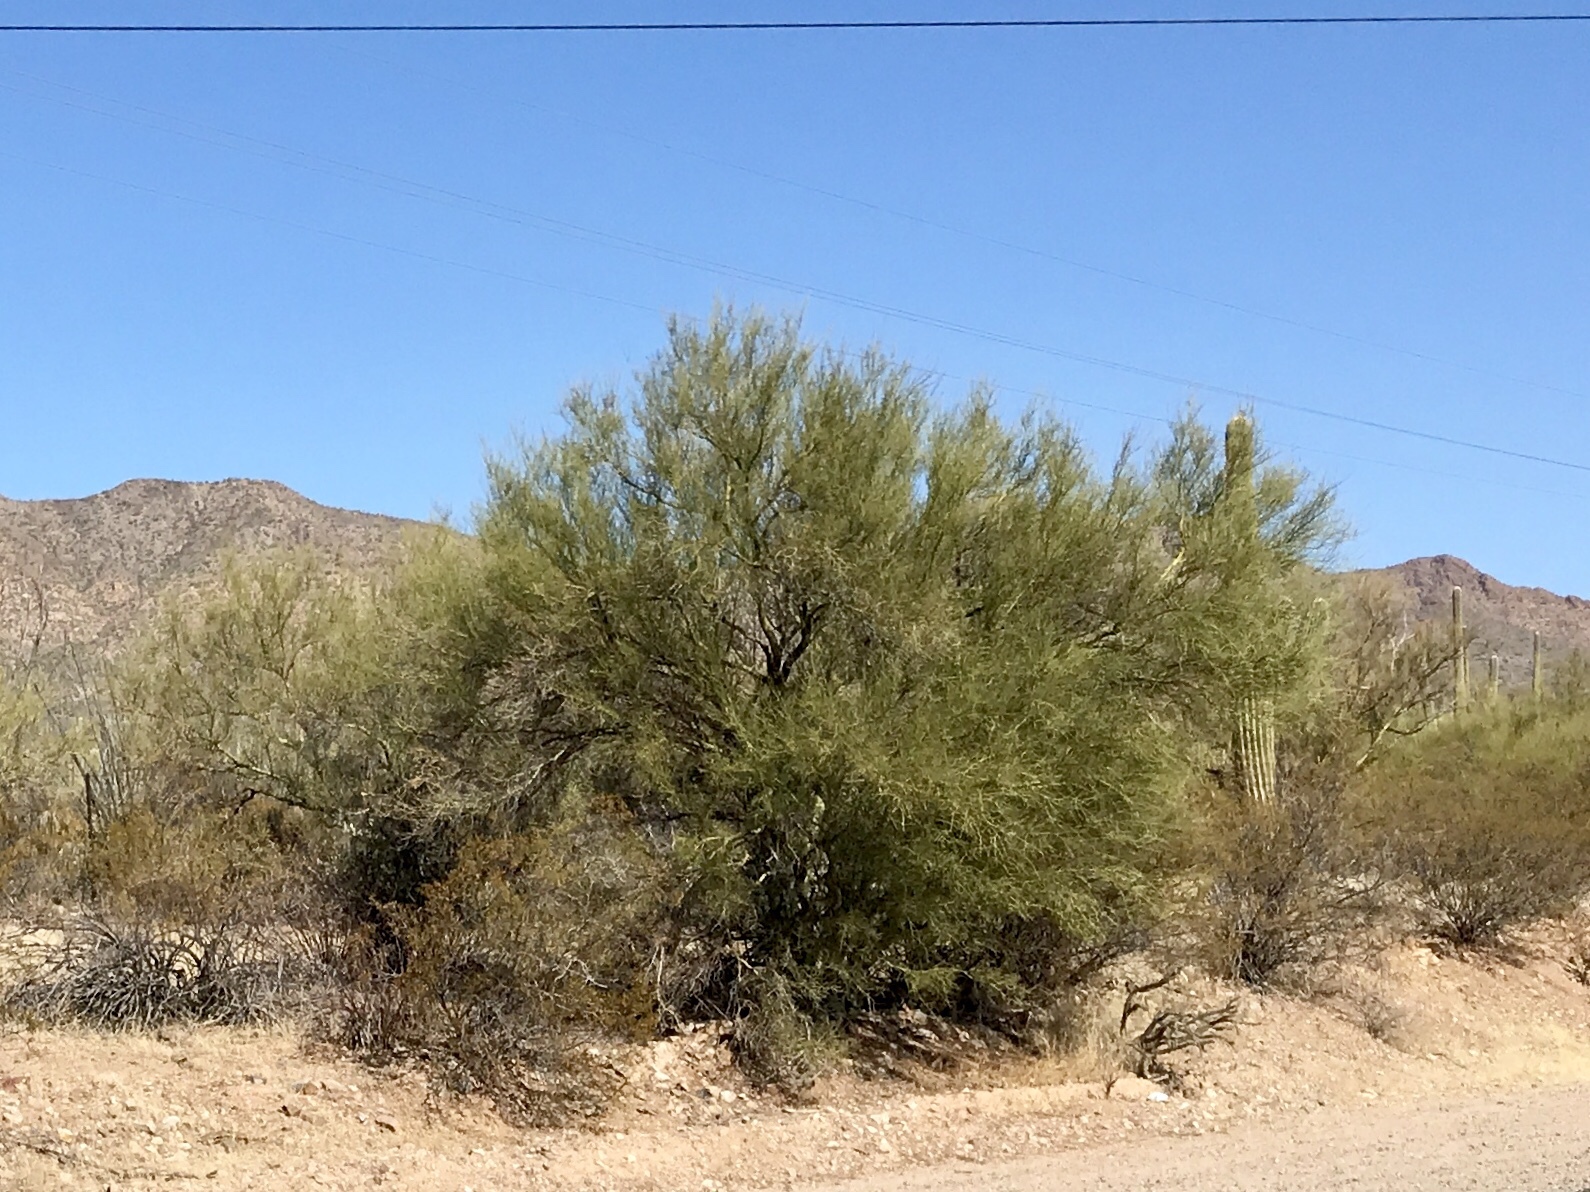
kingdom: Plantae
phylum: Tracheophyta
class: Magnoliopsida
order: Fabales
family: Fabaceae
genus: Parkinsonia
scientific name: Parkinsonia microphylla
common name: Yellow paloverde
